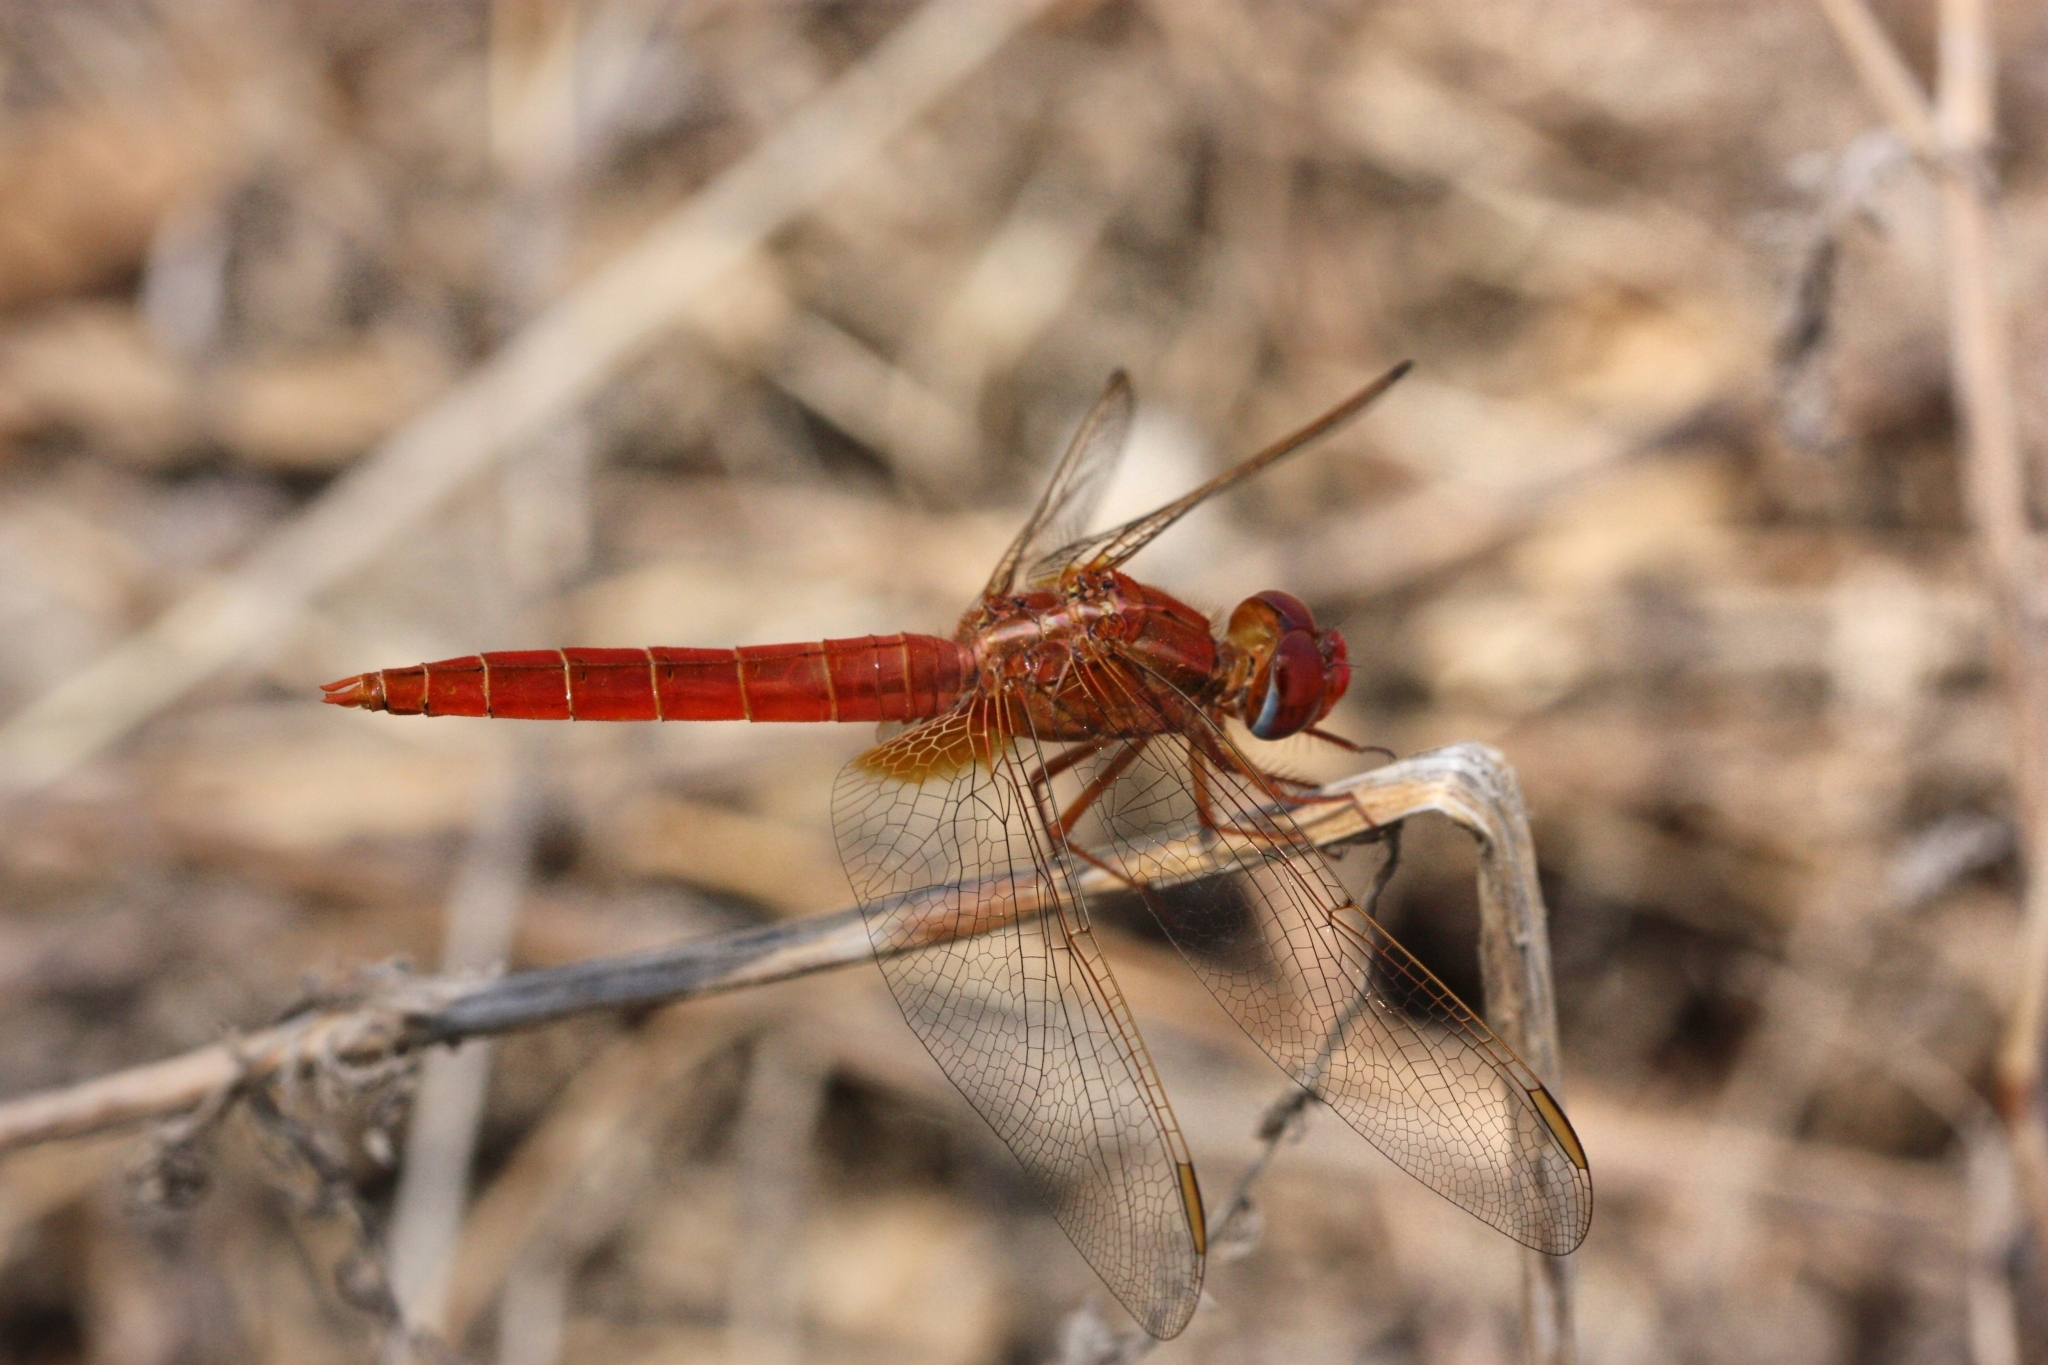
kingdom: Animalia
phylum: Arthropoda
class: Insecta
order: Odonata
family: Libellulidae
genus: Crocothemis
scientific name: Crocothemis erythraea
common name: Scarlet dragonfly
